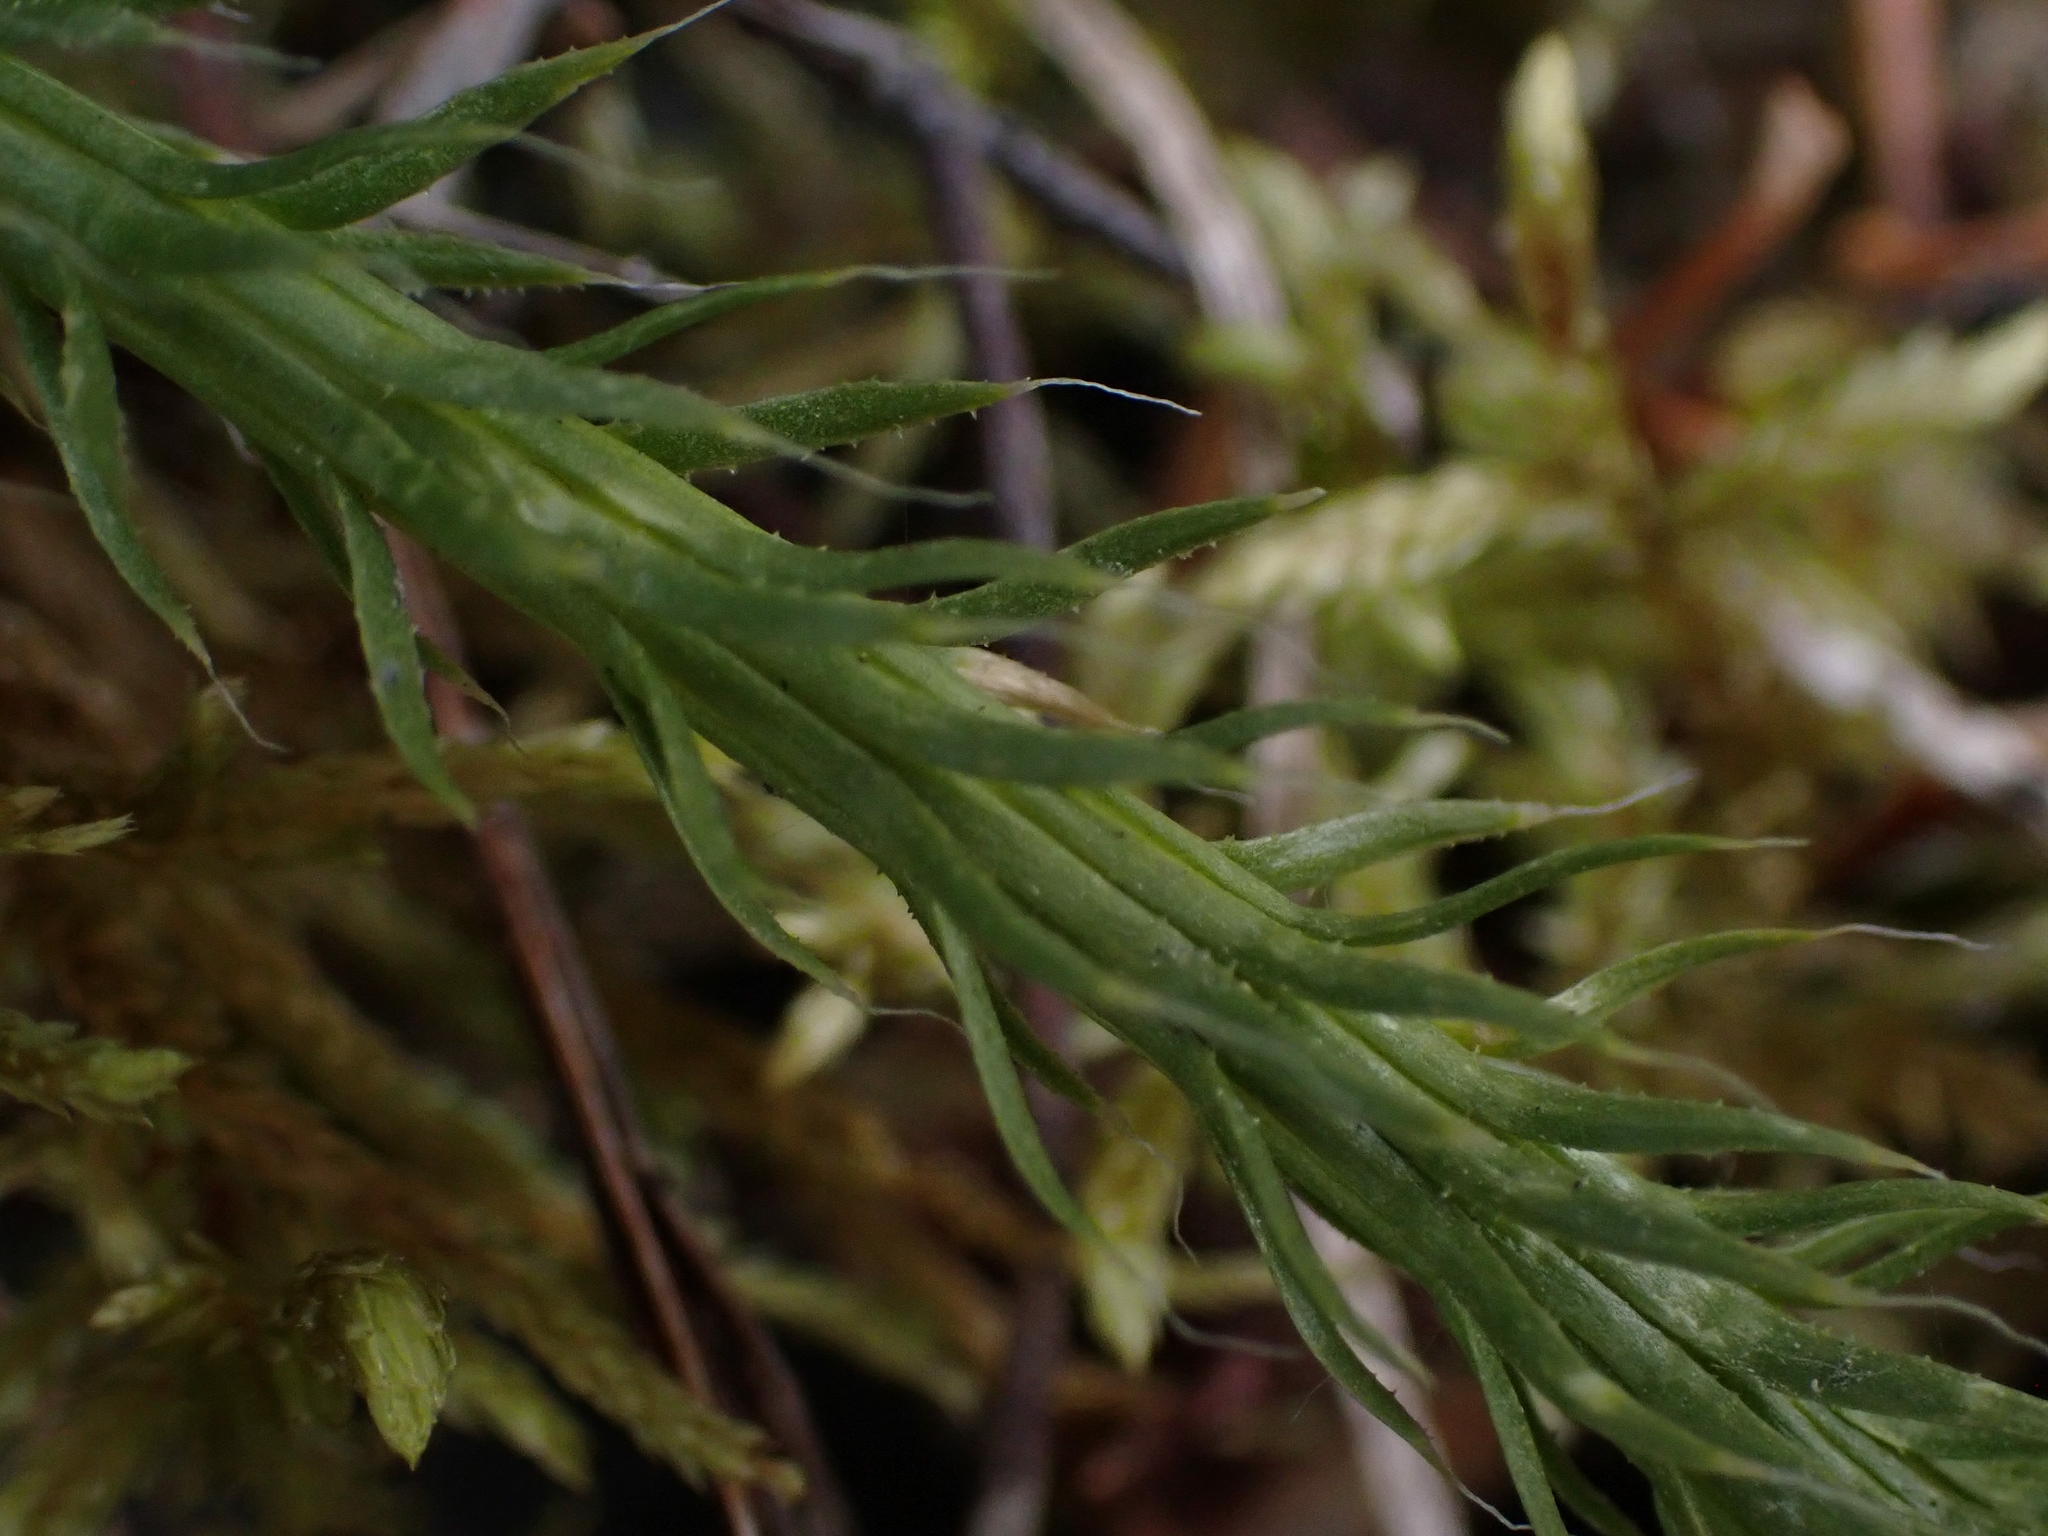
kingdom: Plantae
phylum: Tracheophyta
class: Lycopodiopsida
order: Lycopodiales
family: Lycopodiaceae
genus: Lycopodium
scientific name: Lycopodium clavatum
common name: Stag's-horn clubmoss
